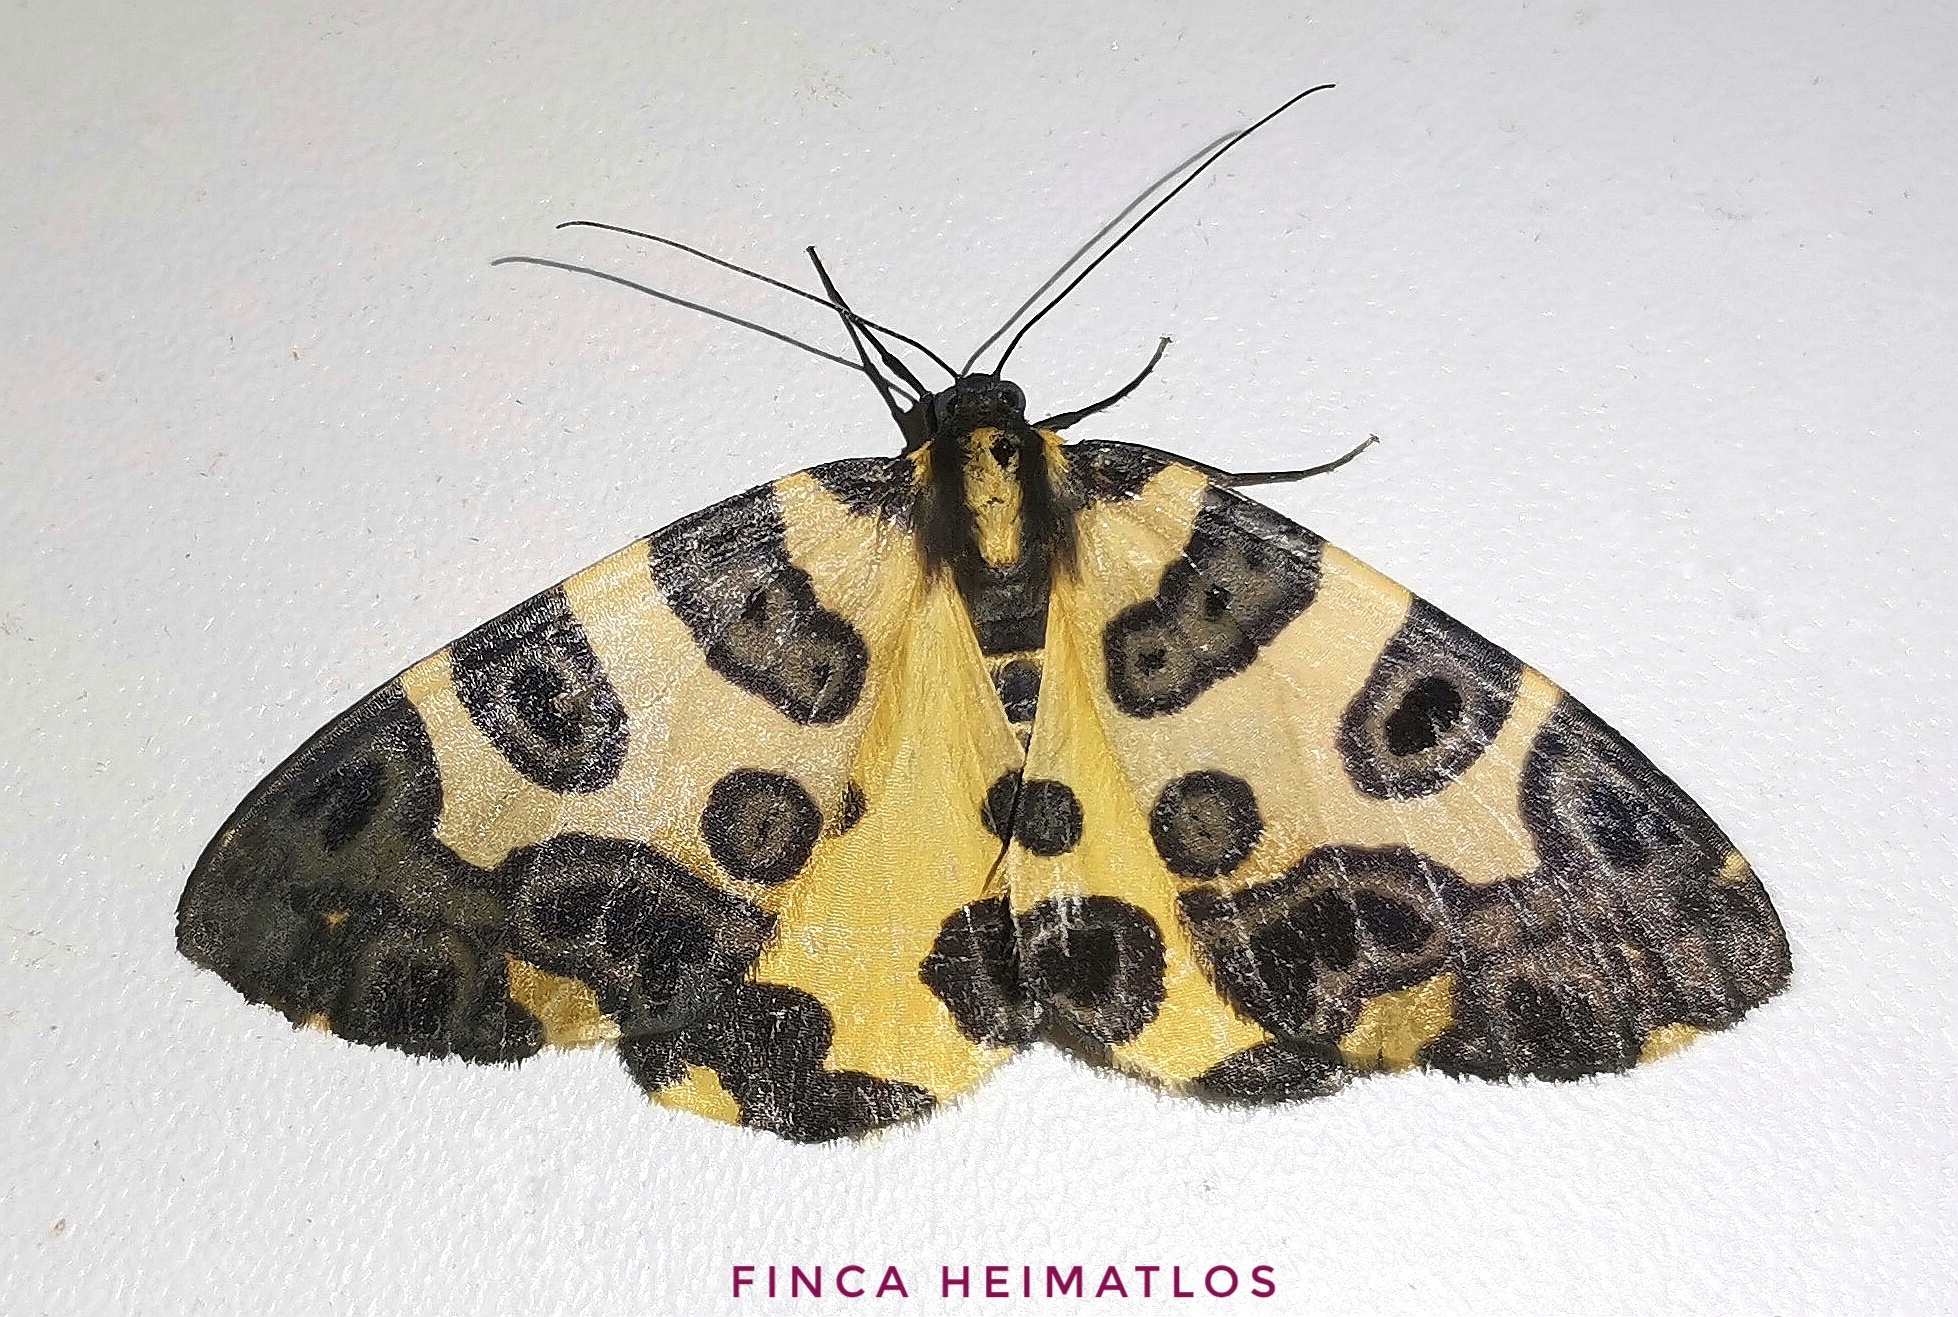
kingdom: Animalia
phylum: Arthropoda
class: Insecta
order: Lepidoptera
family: Geometridae
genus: Pantherodes
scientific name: Pantherodes conglomerata
